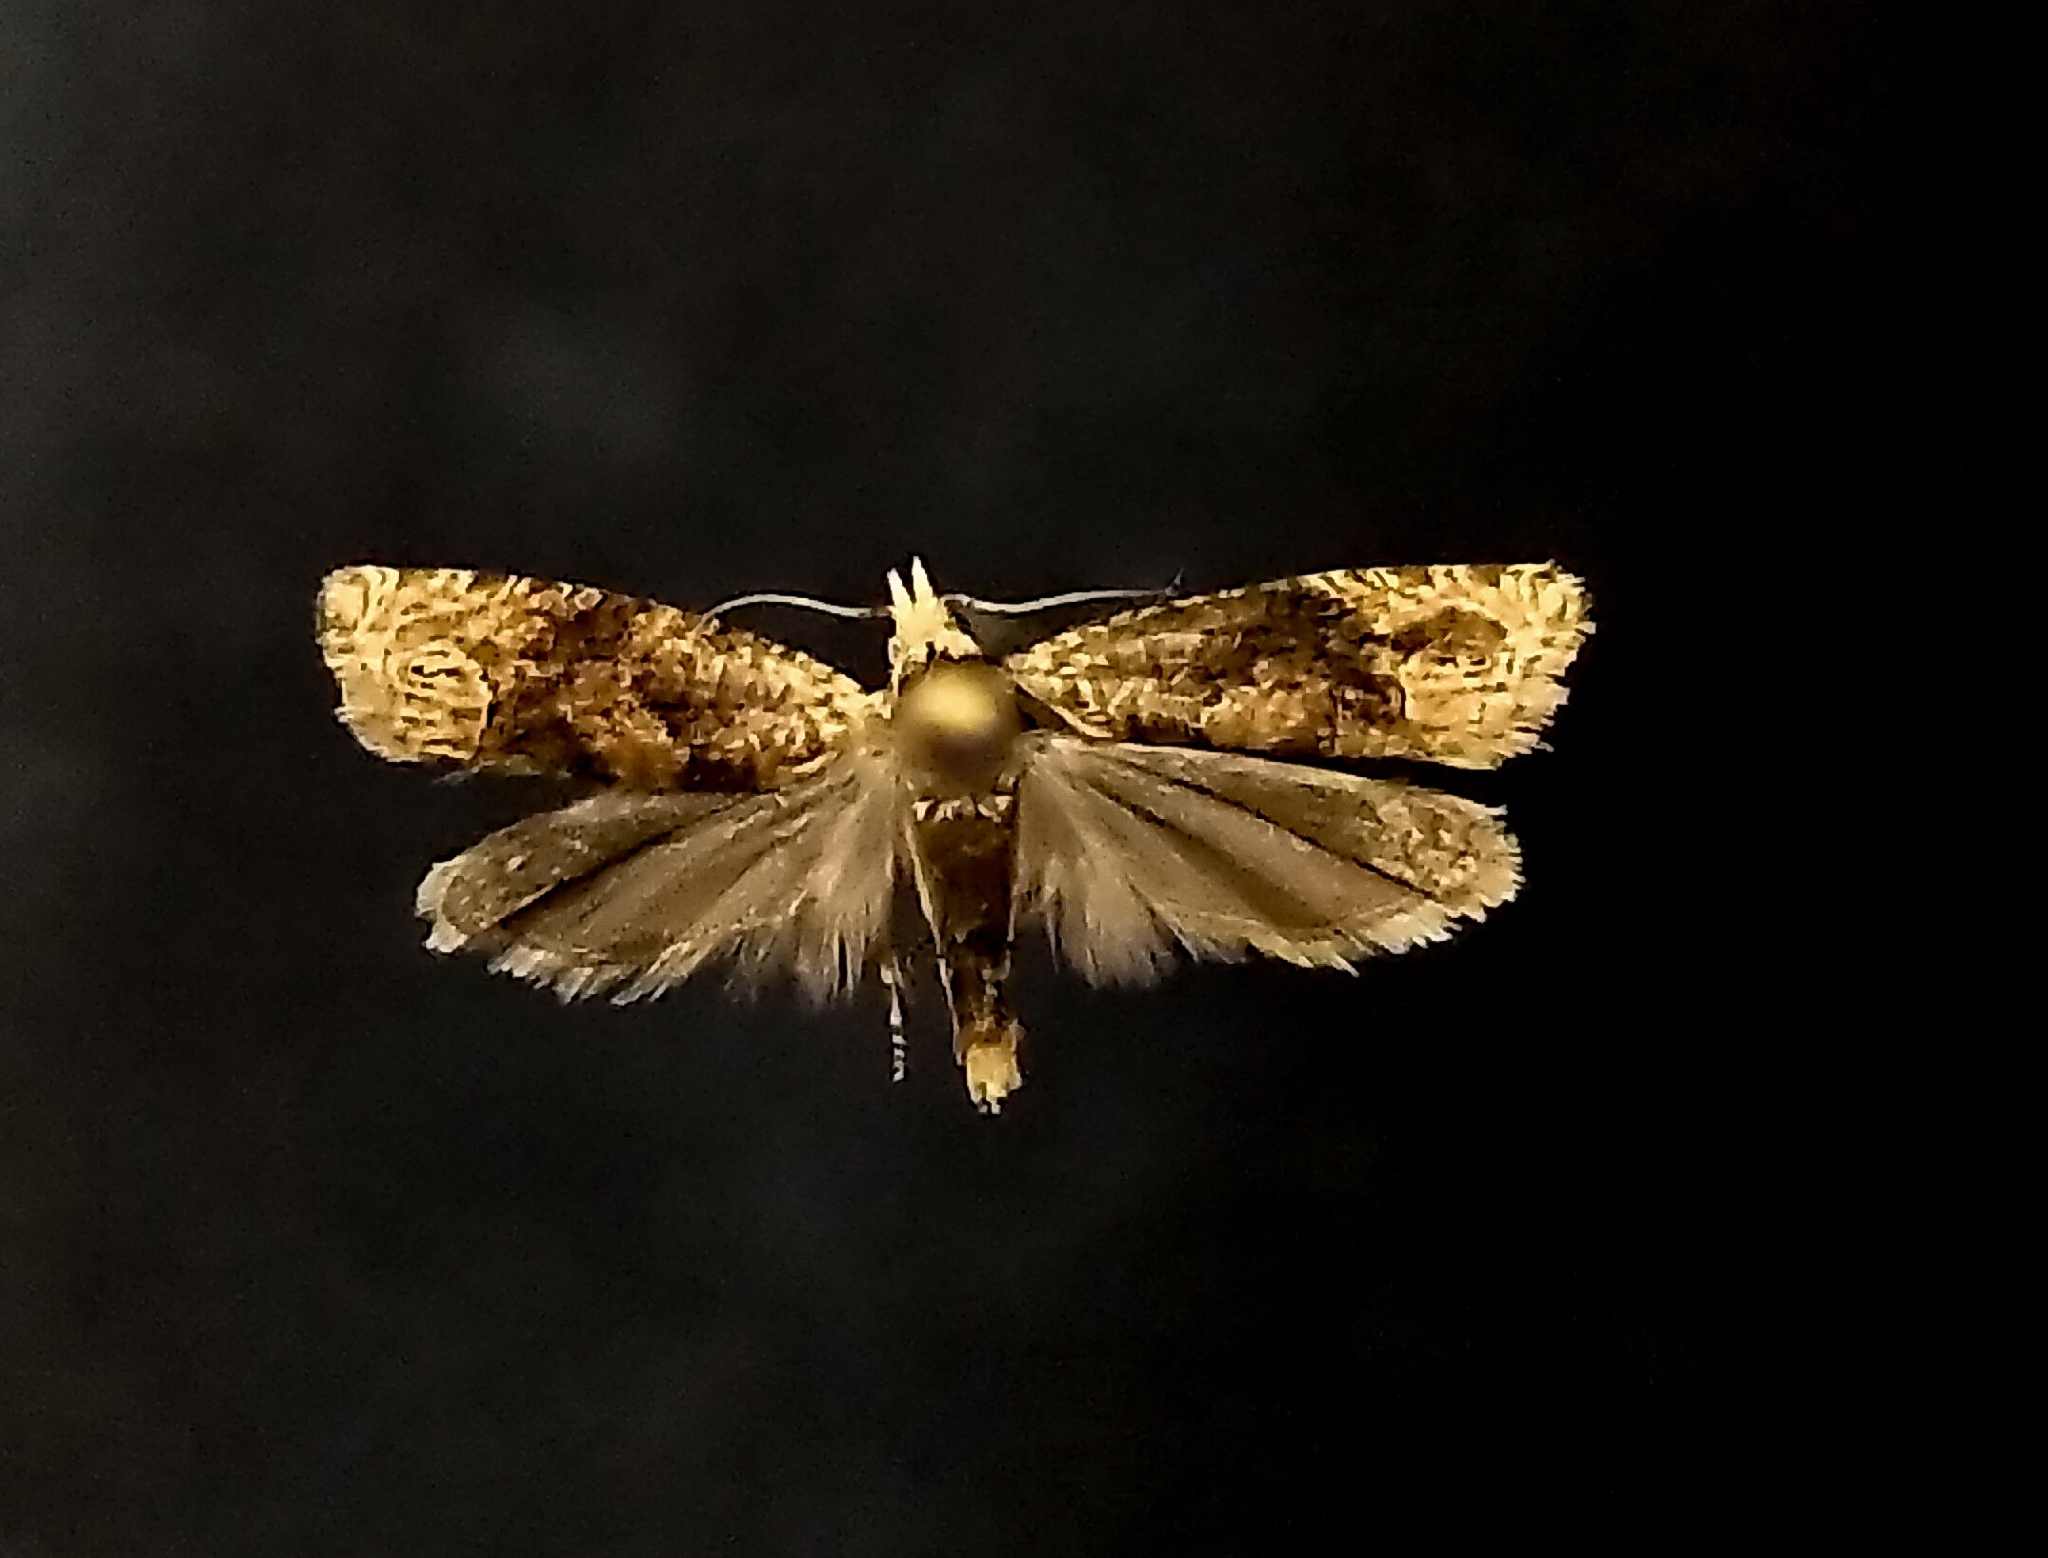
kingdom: Animalia
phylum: Arthropoda
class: Insecta
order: Lepidoptera
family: Tortricidae
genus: Eucosma
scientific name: Eucosma ochrocephala
